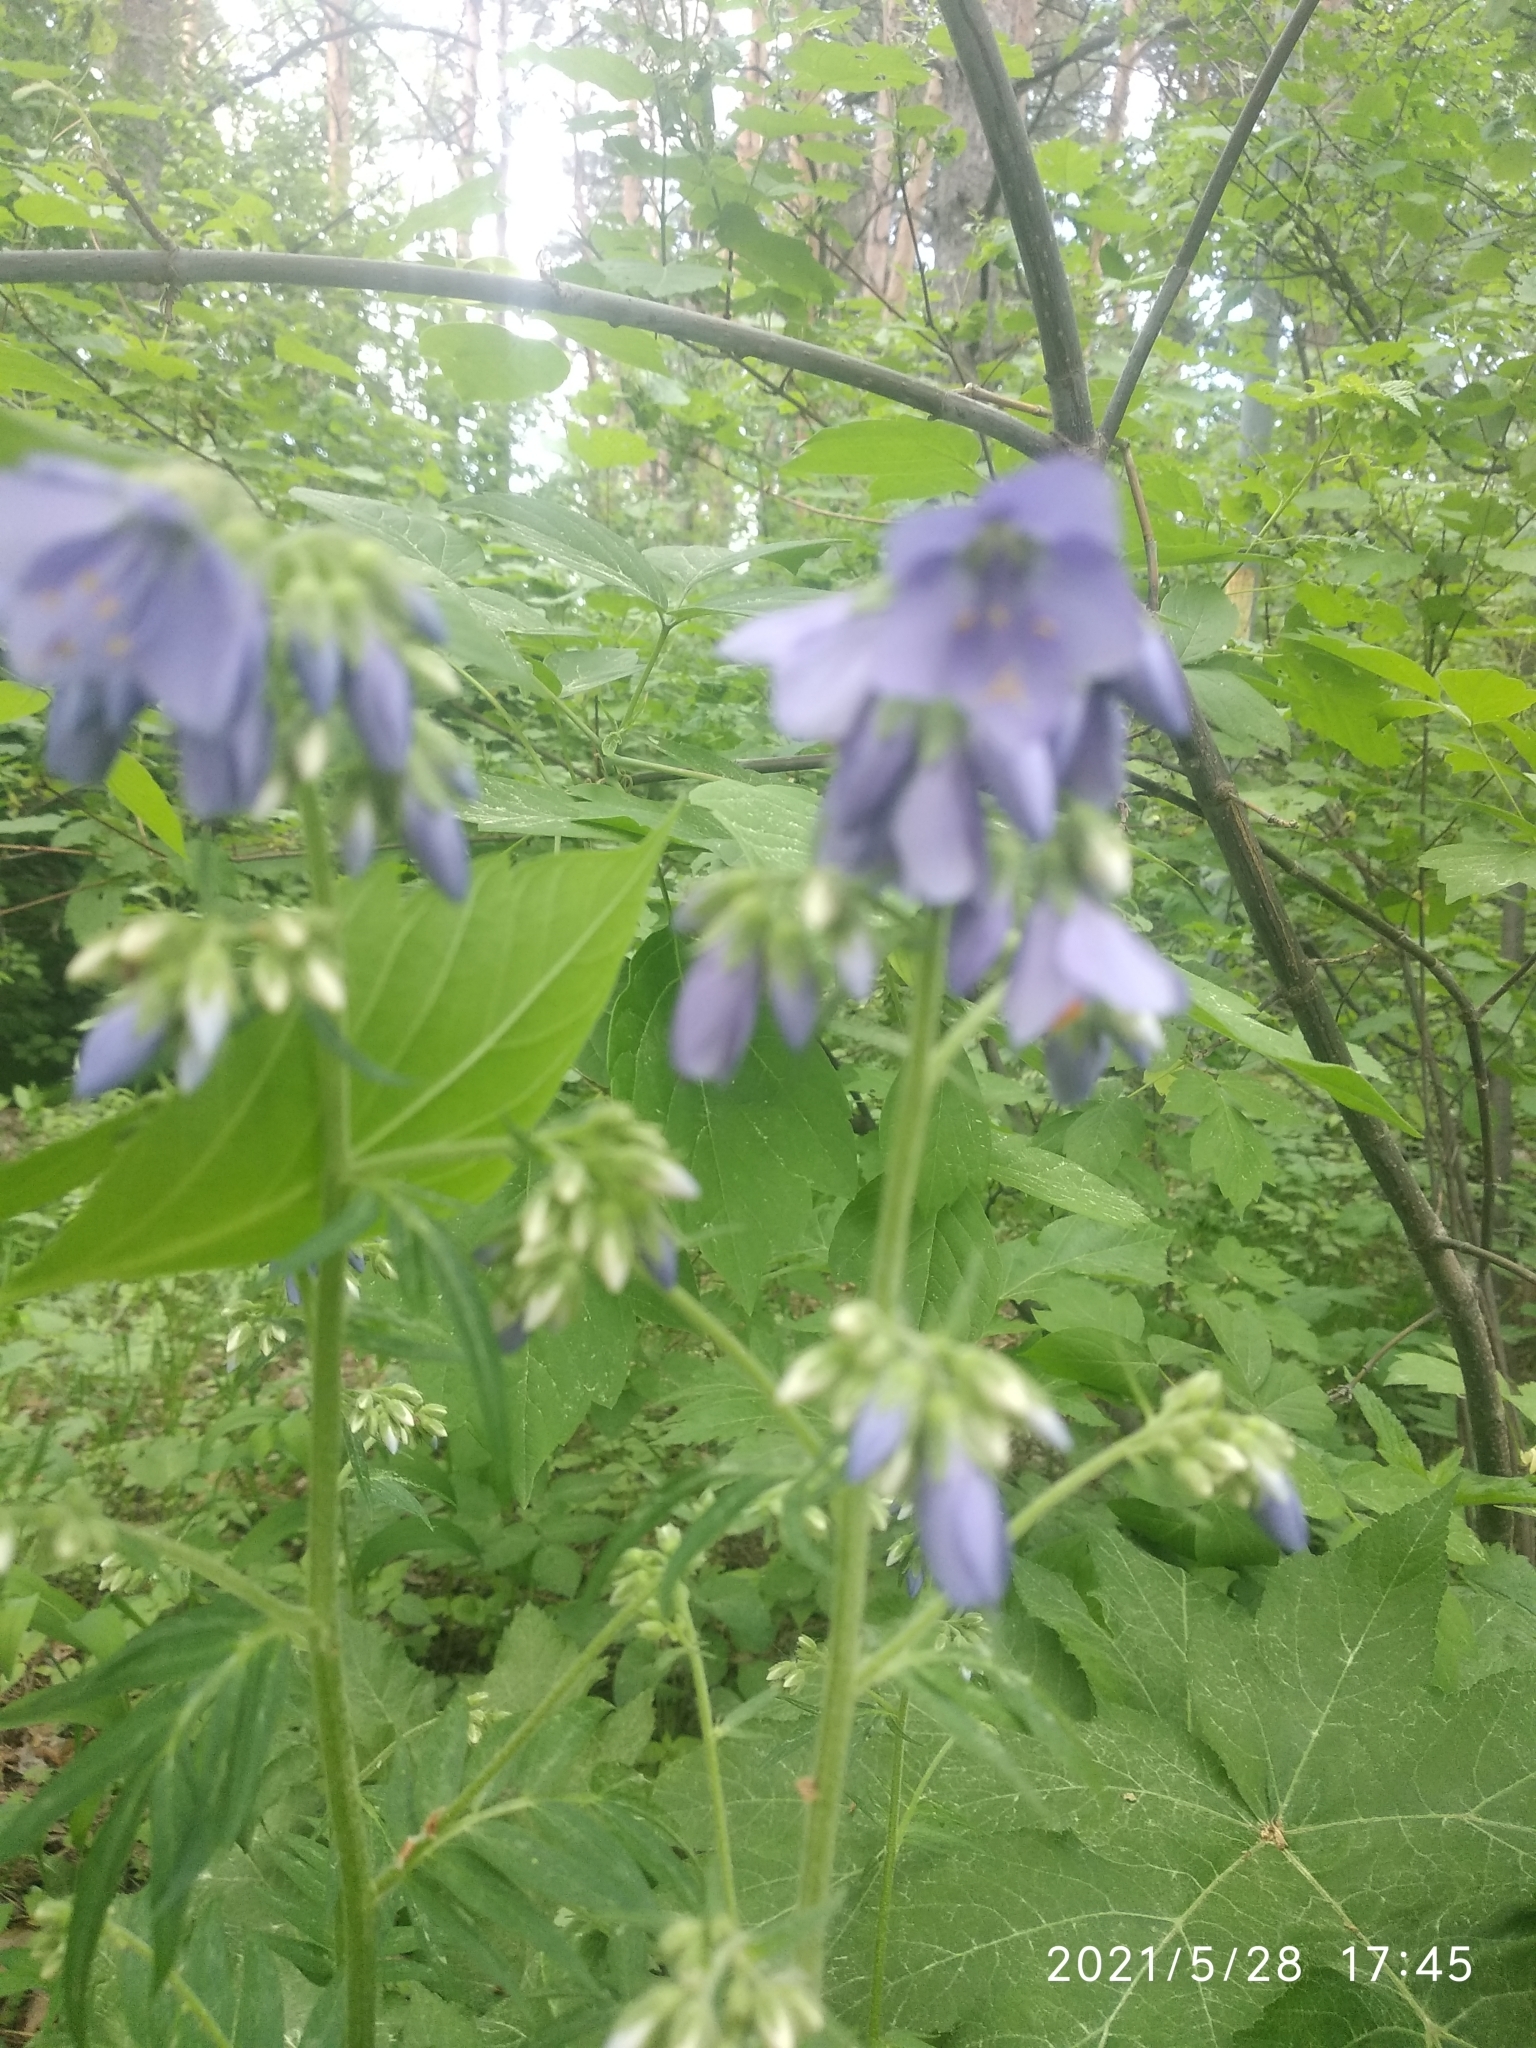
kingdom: Plantae
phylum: Tracheophyta
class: Magnoliopsida
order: Ericales
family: Polemoniaceae
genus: Polemonium
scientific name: Polemonium caeruleum
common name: Jacob's-ladder
